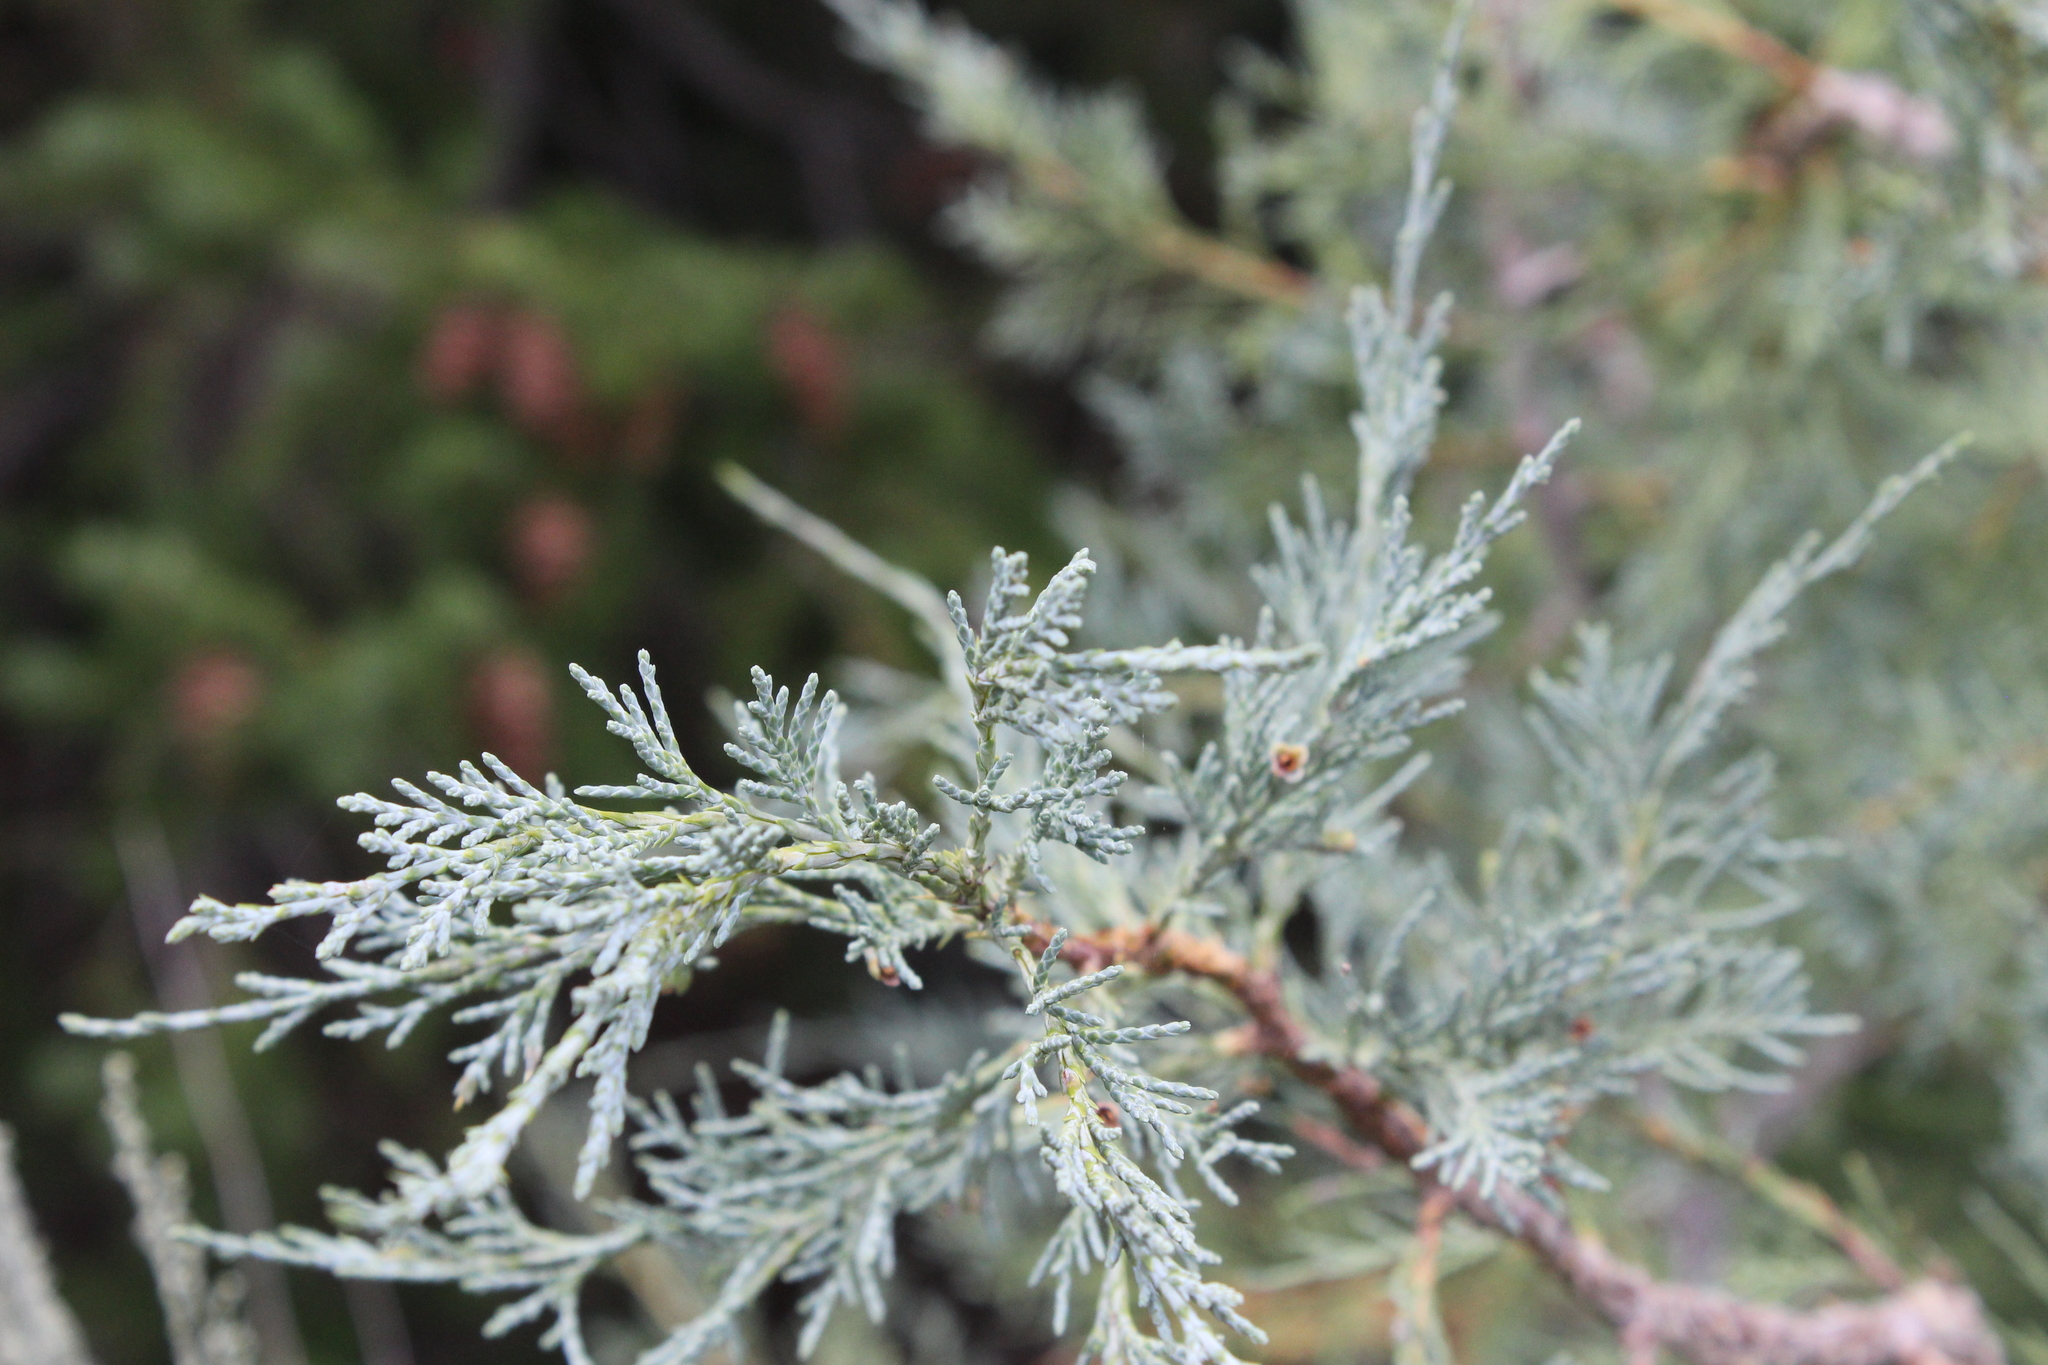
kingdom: Plantae
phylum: Tracheophyta
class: Pinopsida
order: Pinales
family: Cupressaceae
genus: Juniperus
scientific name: Juniperus scopulorum
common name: Rocky mountain juniper
